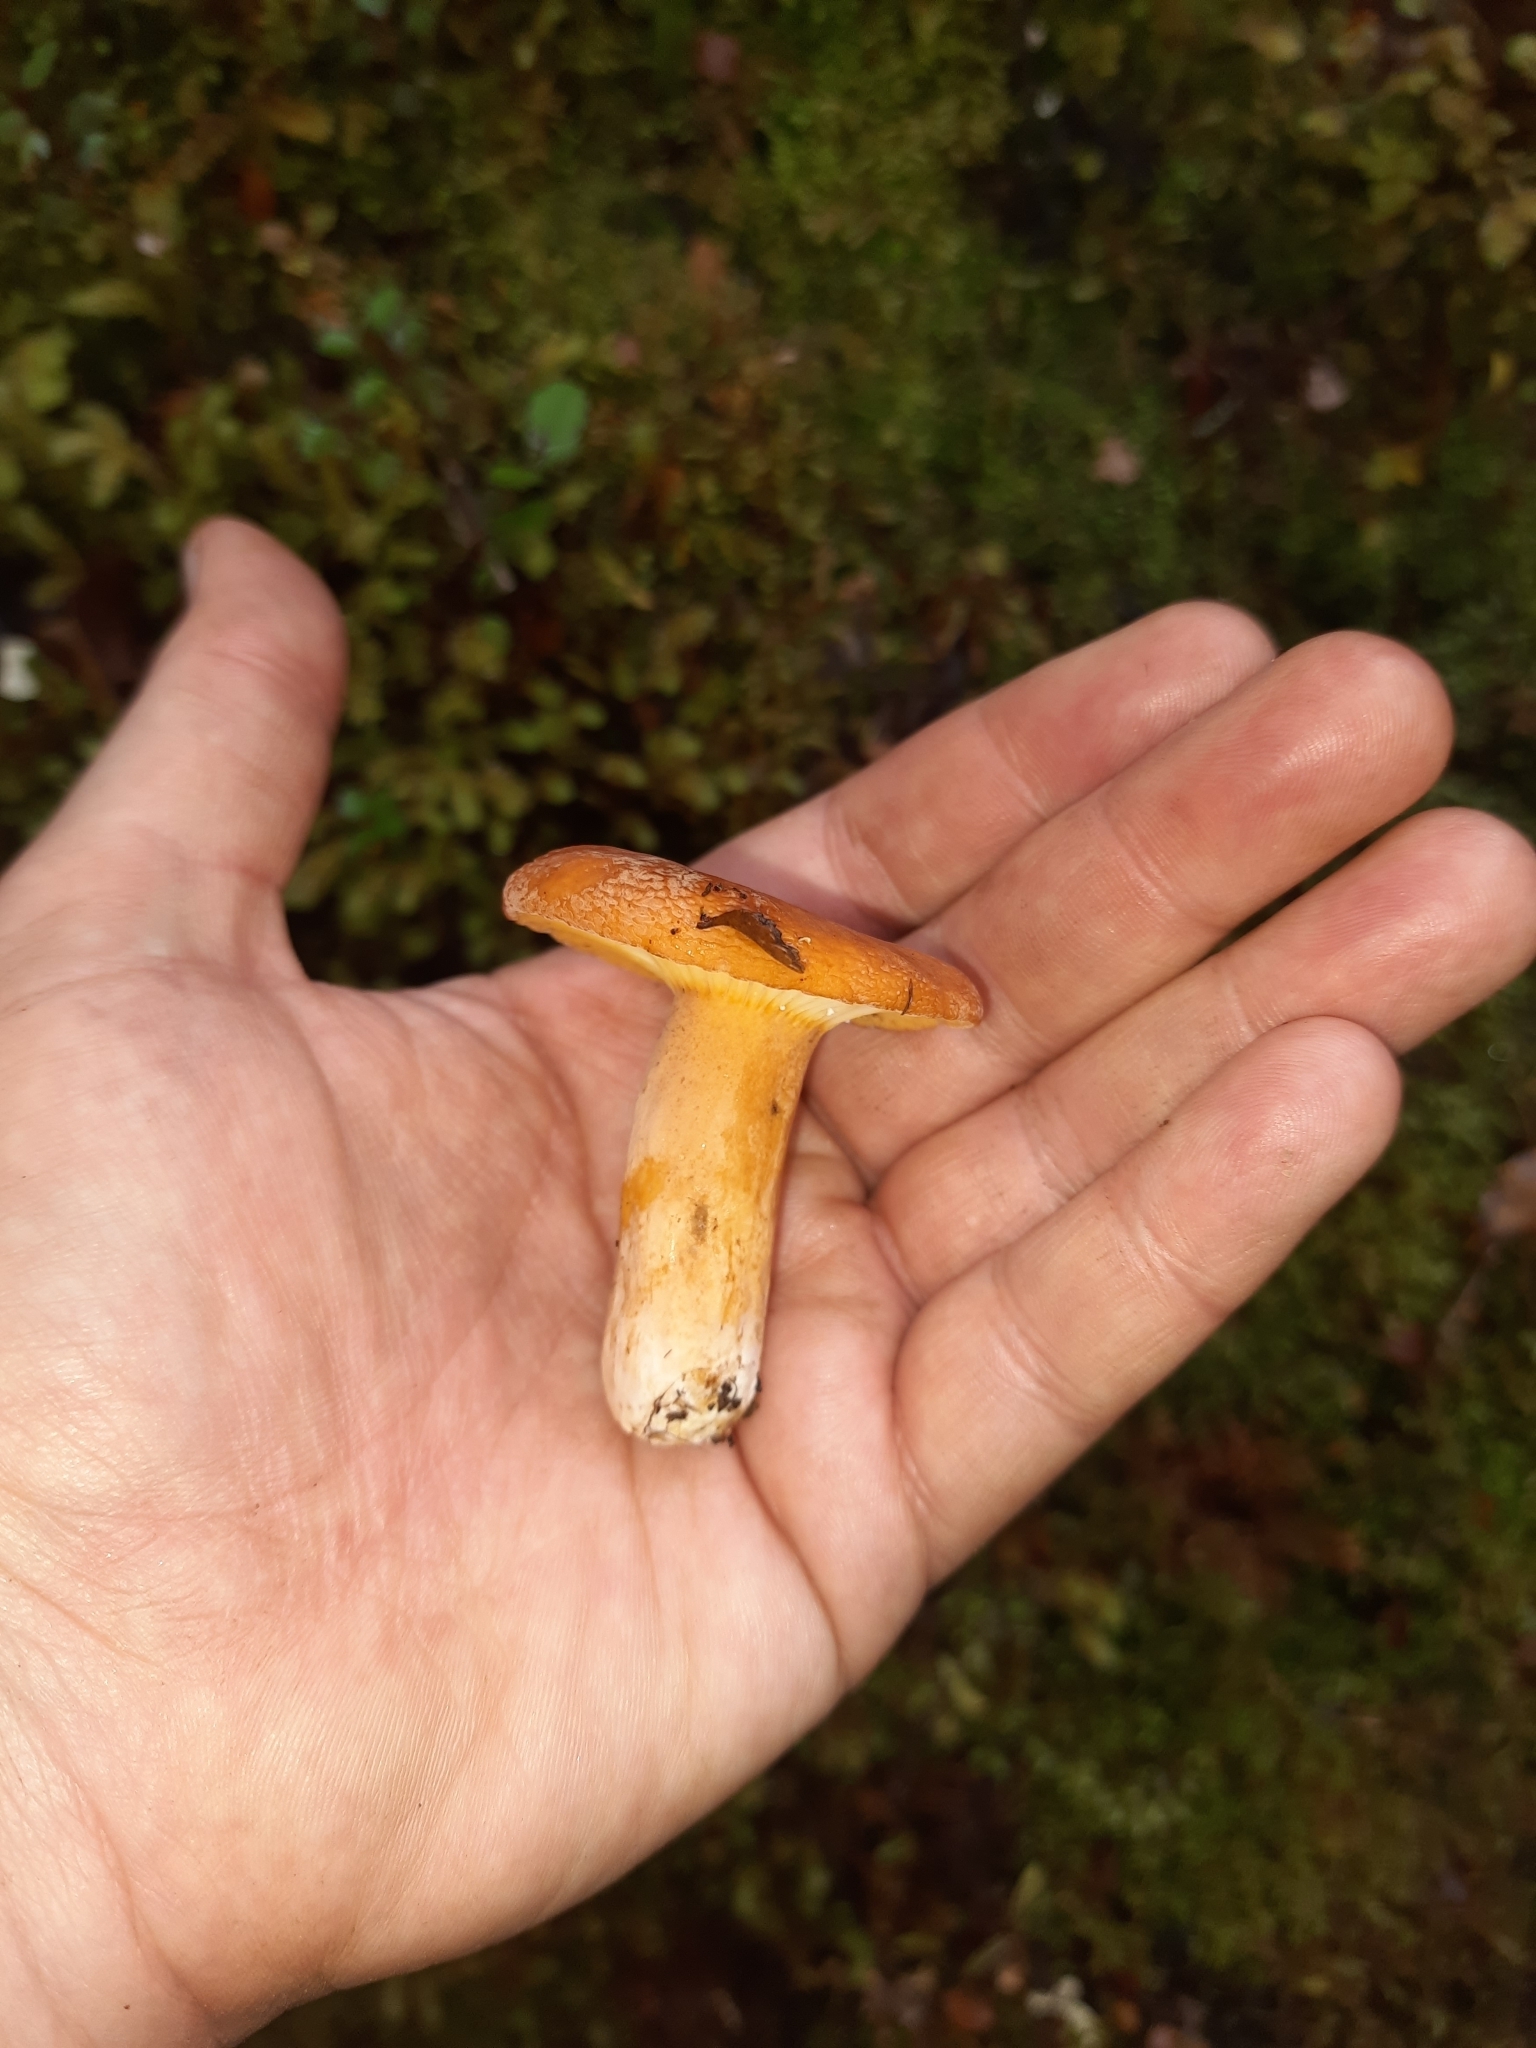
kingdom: Fungi
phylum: Basidiomycota
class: Agaricomycetes
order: Russulales
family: Russulaceae
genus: Lactifluus
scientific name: Lactifluus aurantioruber
